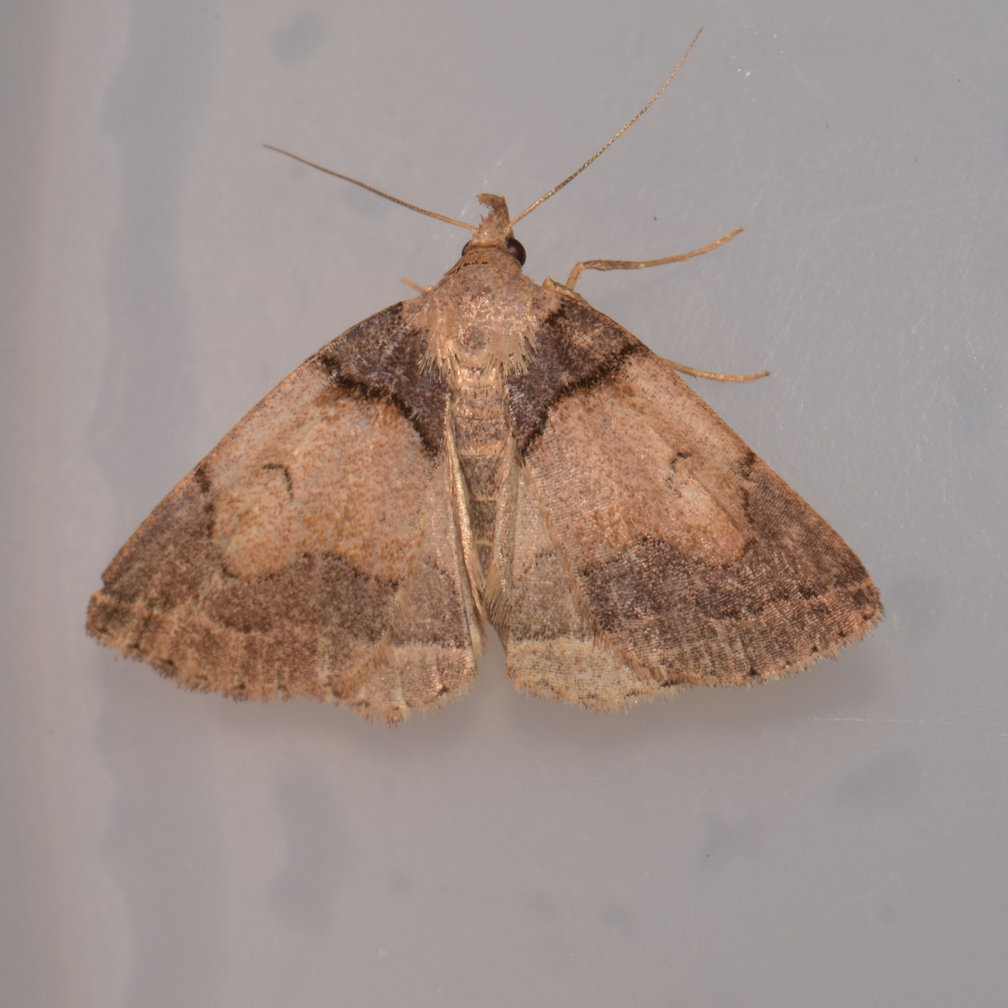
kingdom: Animalia
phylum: Arthropoda
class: Insecta
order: Lepidoptera
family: Erebidae
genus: Zanclognatha
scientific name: Zanclognatha laevigata
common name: Variable fan-foot
